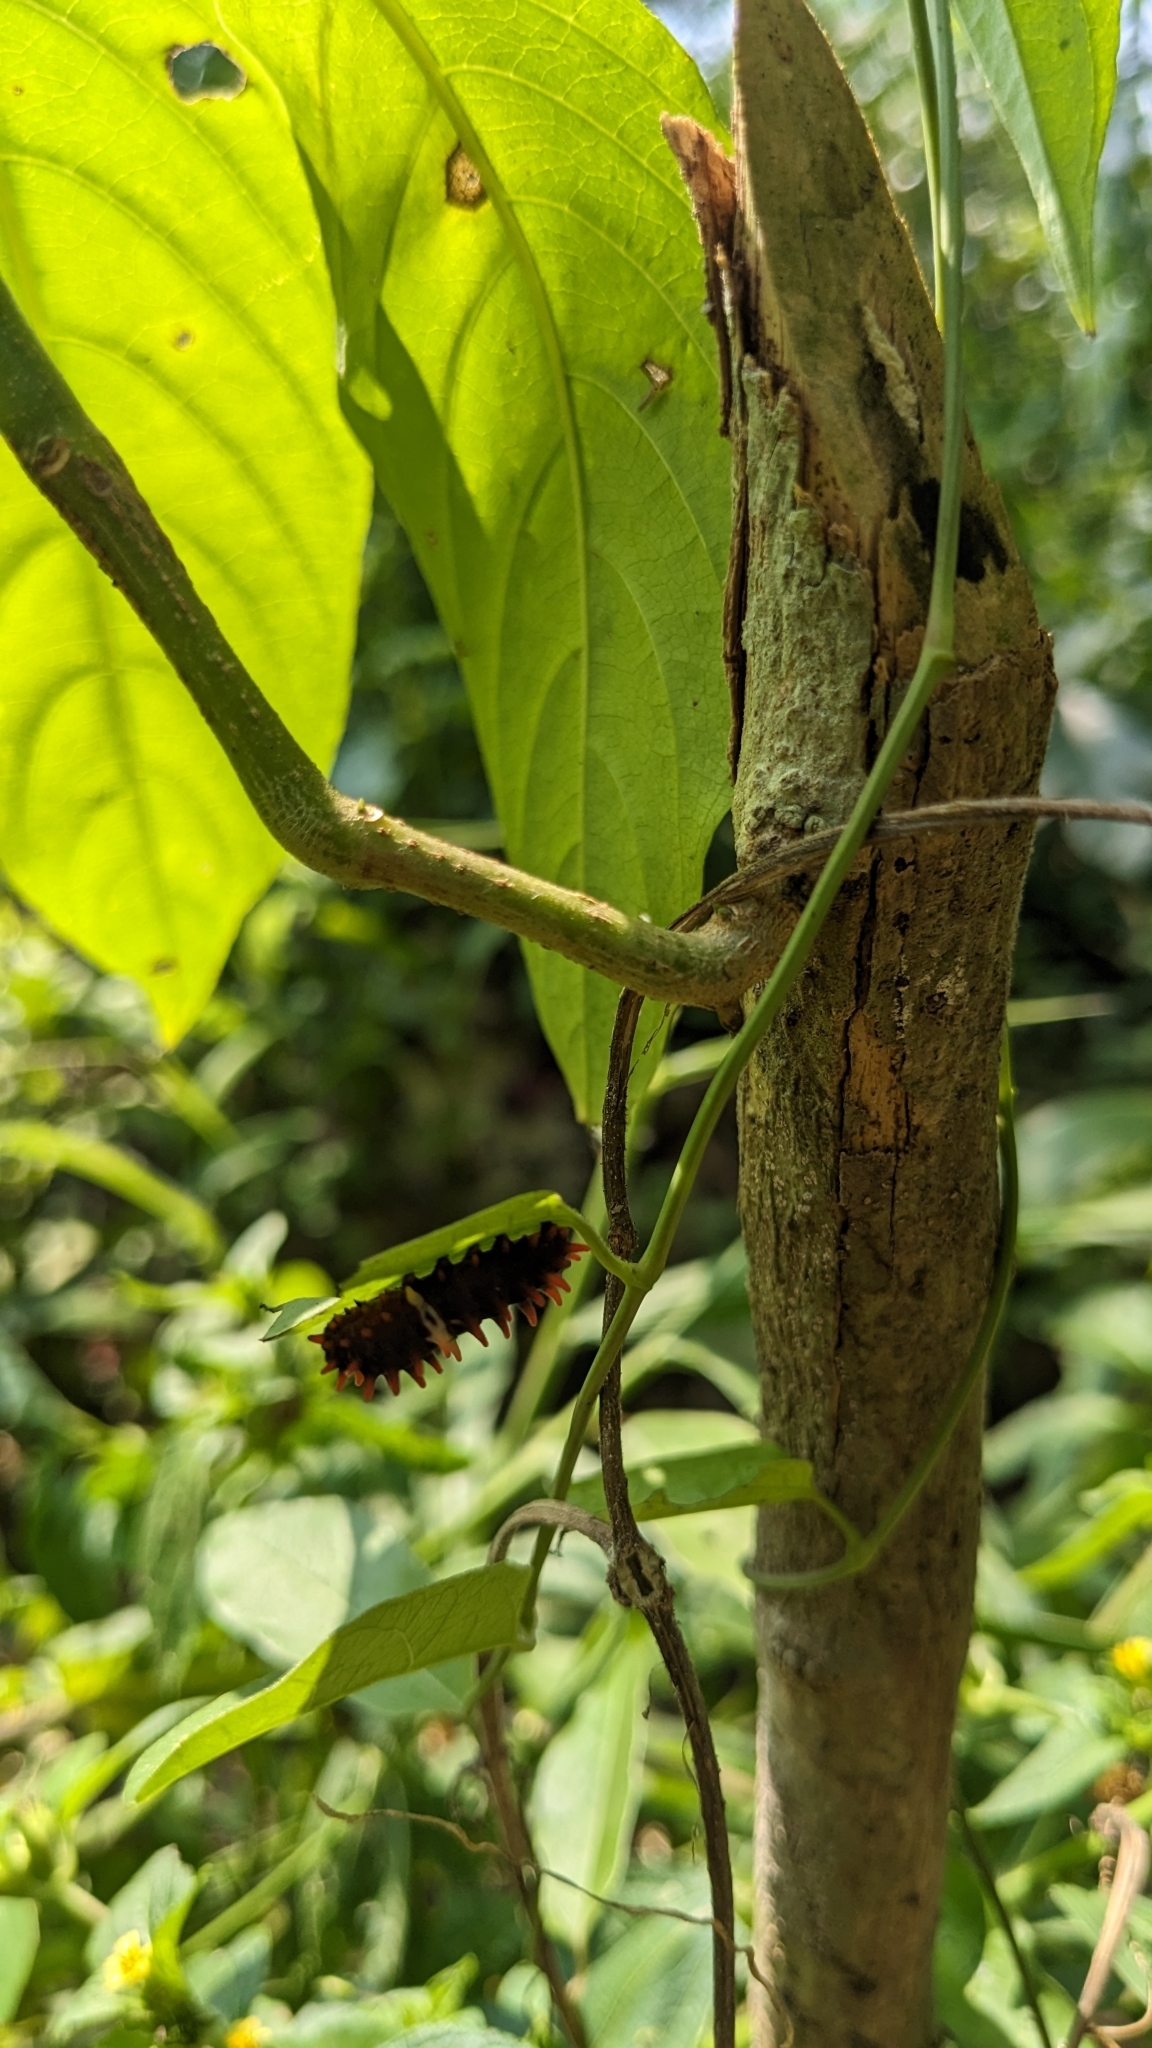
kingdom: Animalia
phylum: Arthropoda
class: Insecta
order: Lepidoptera
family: Papilionidae
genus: Pachliopta
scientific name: Pachliopta aristolochiae
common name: Common rose
